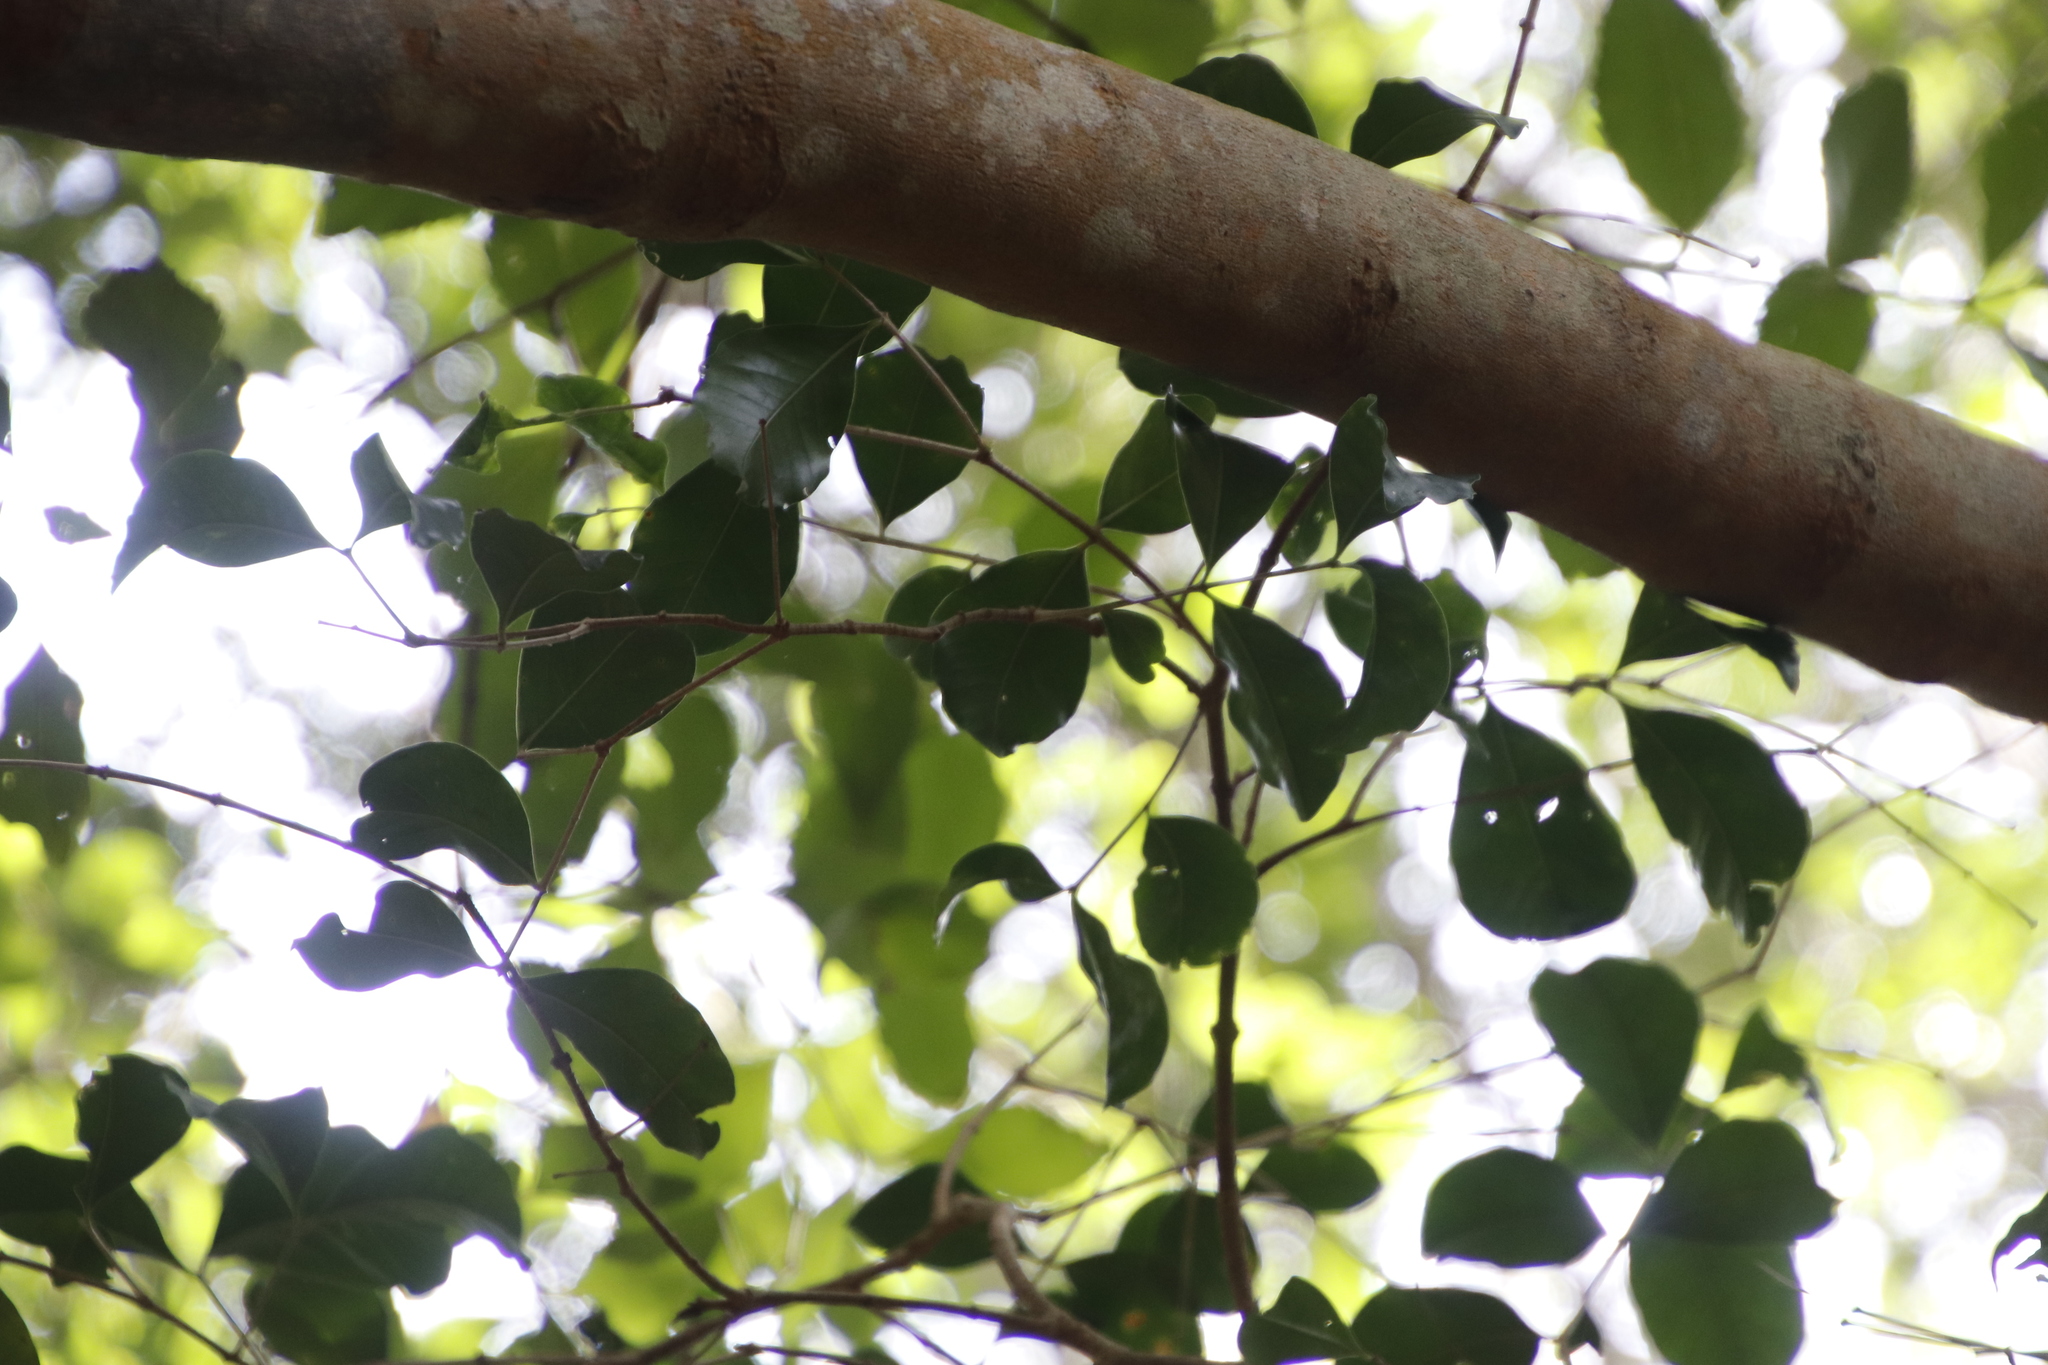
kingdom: Plantae
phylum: Tracheophyta
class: Magnoliopsida
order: Celastrales
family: Celastraceae
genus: Cassine
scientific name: Cassine peragua
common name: Cape saffron
